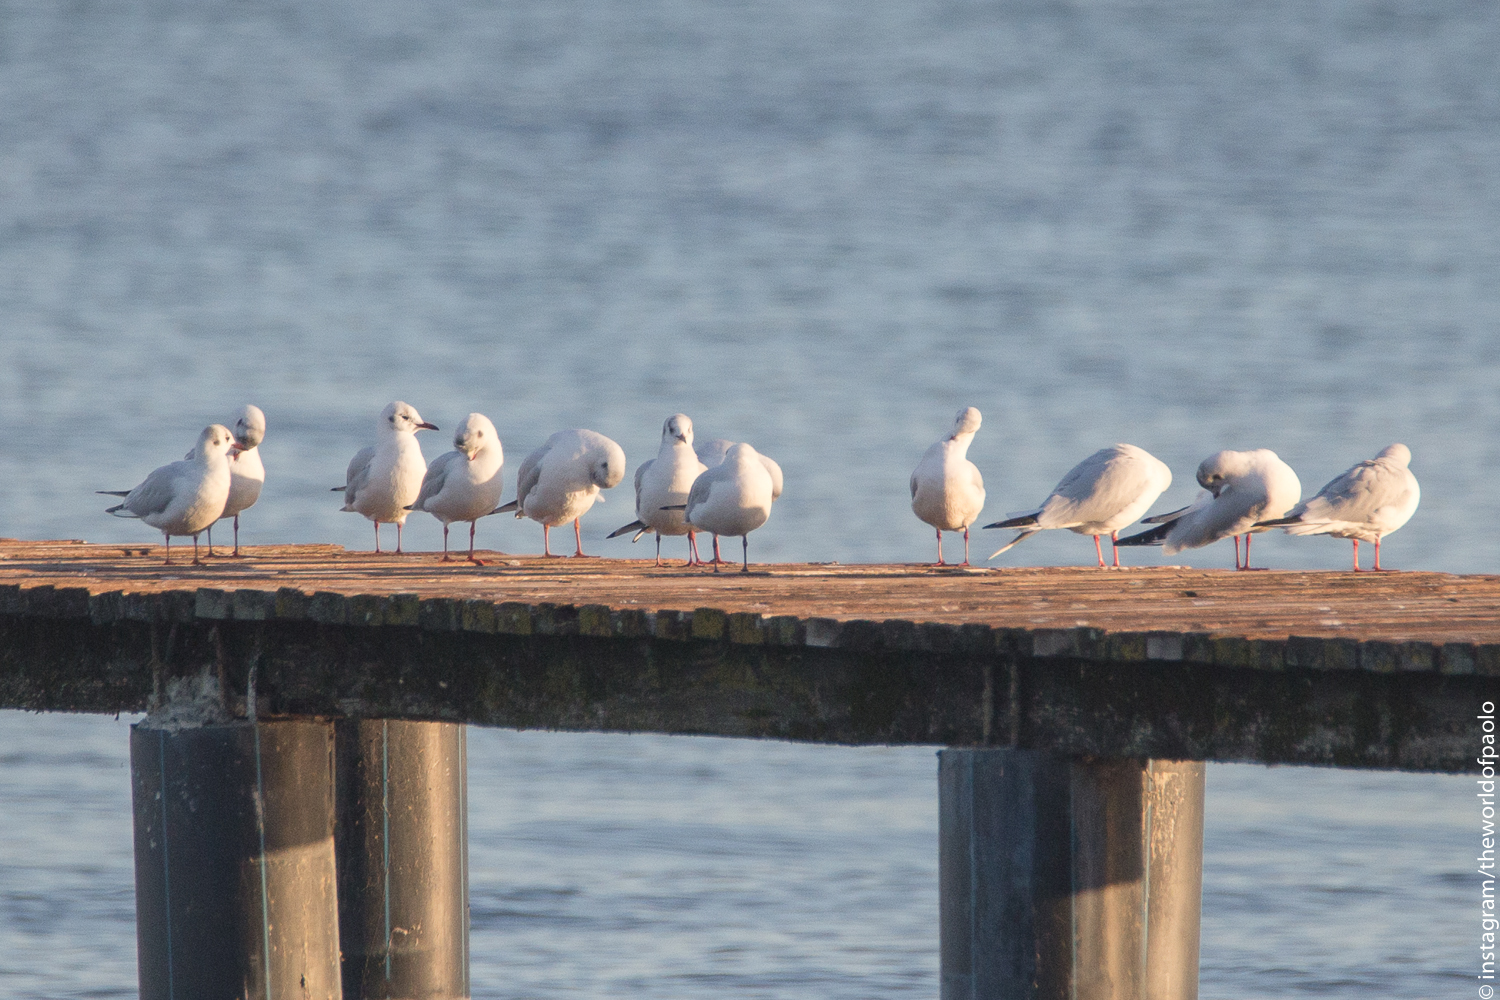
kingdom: Animalia
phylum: Chordata
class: Aves
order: Charadriiformes
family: Laridae
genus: Chroicocephalus
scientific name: Chroicocephalus ridibundus
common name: Black-headed gull
